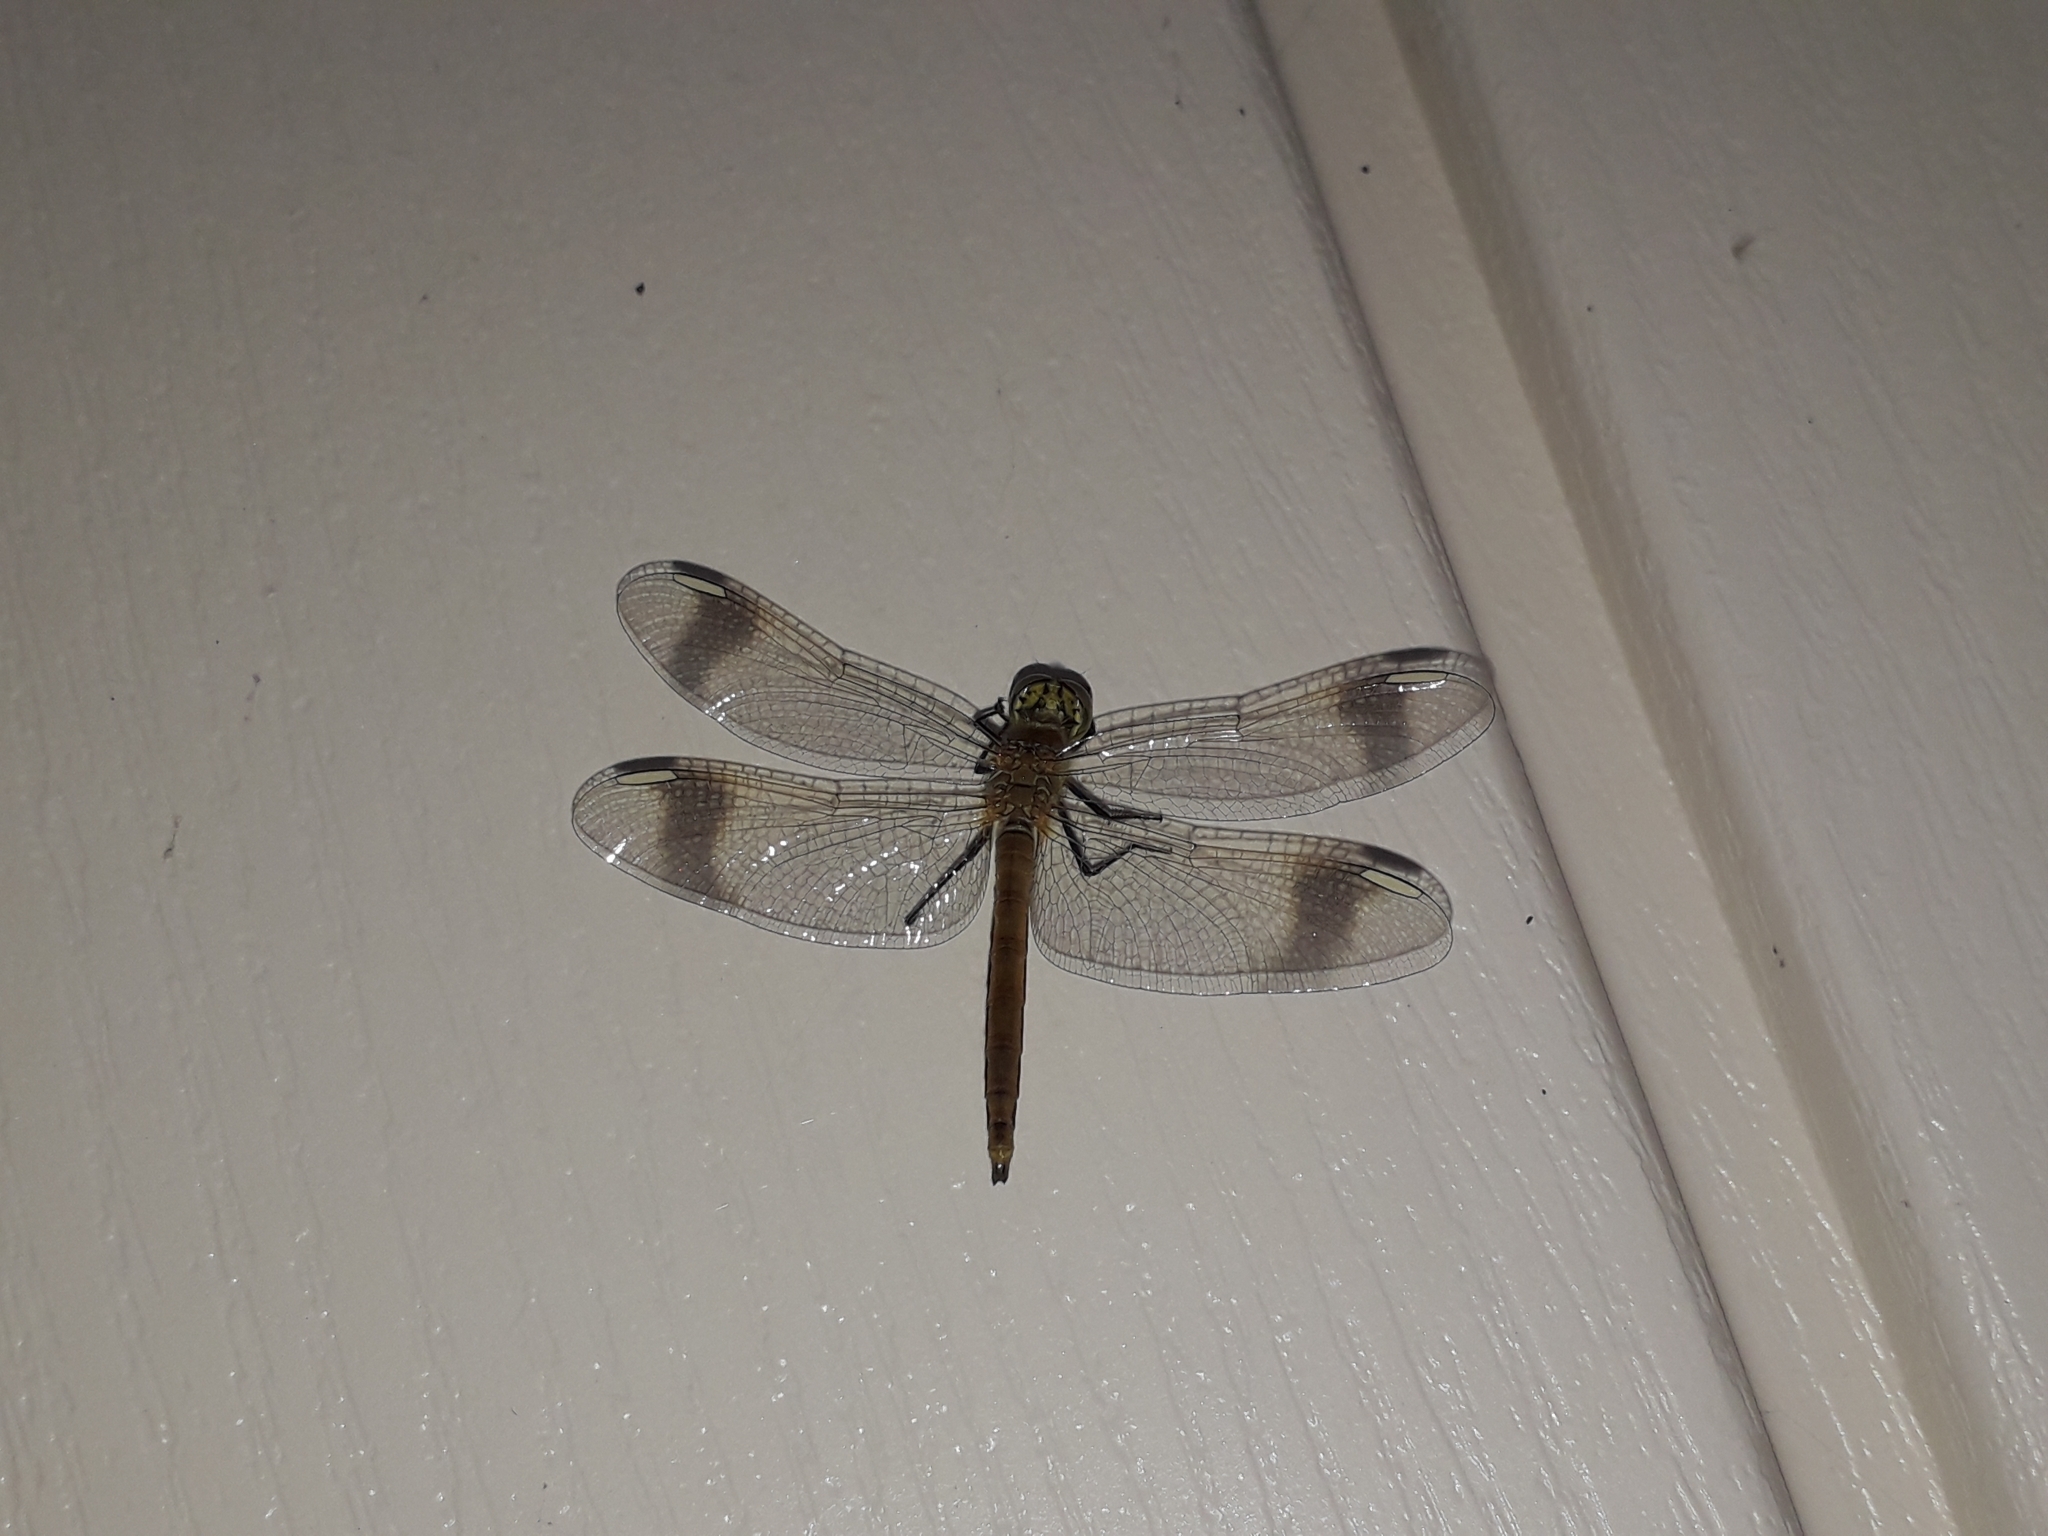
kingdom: Animalia
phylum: Arthropoda
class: Insecta
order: Odonata
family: Libellulidae
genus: Sympetrum
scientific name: Sympetrum pedemontanum
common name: Banded darter
